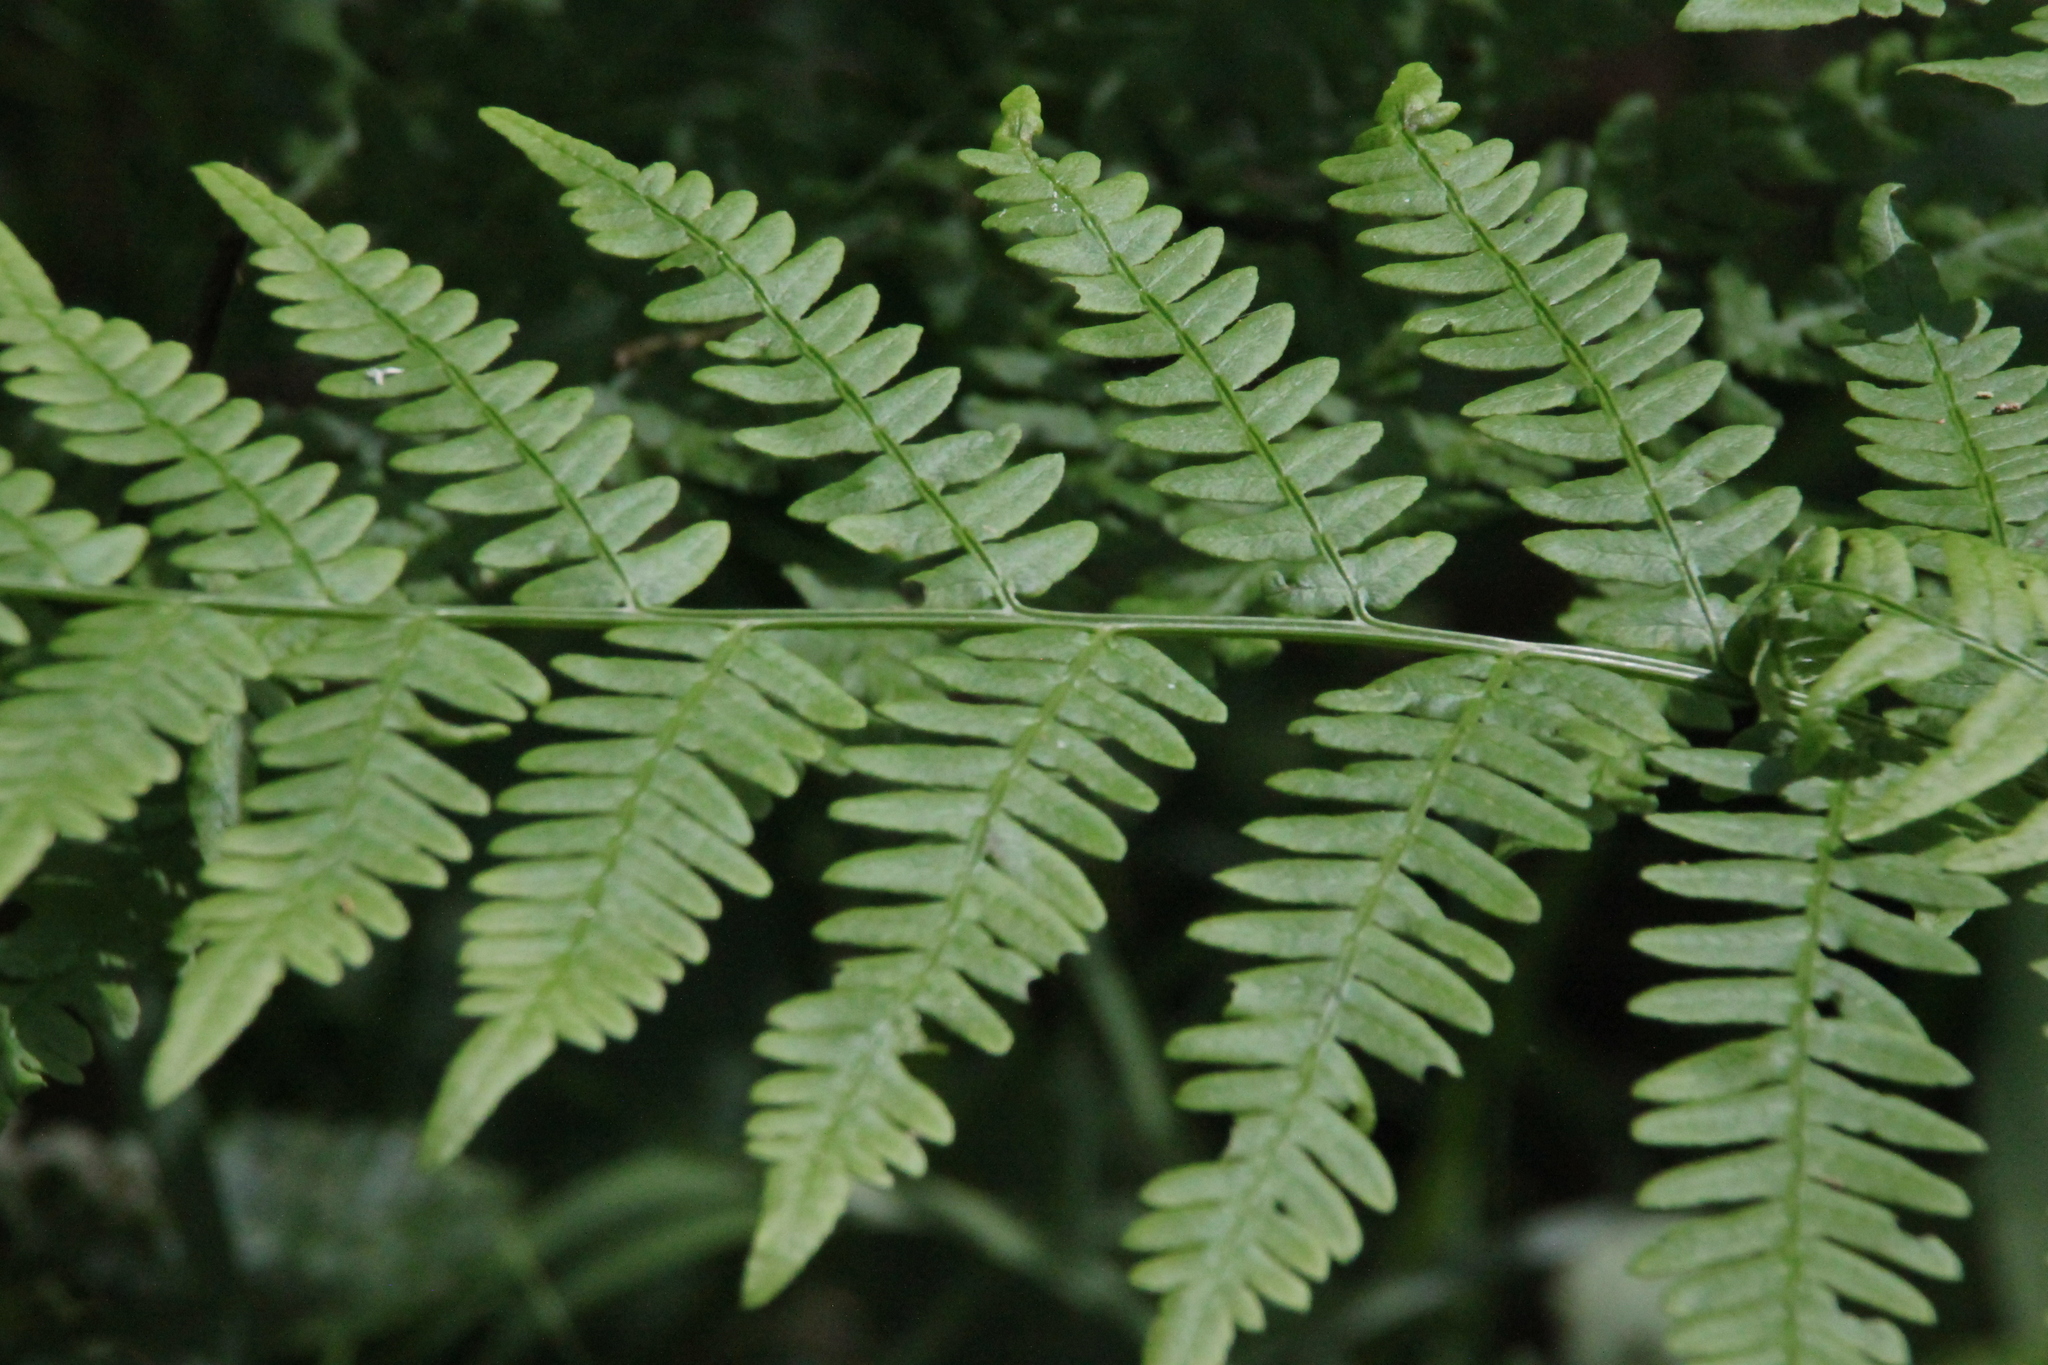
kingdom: Plantae
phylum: Tracheophyta
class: Polypodiopsida
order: Polypodiales
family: Dennstaedtiaceae
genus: Pteridium
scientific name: Pteridium aquilinum
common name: Bracken
